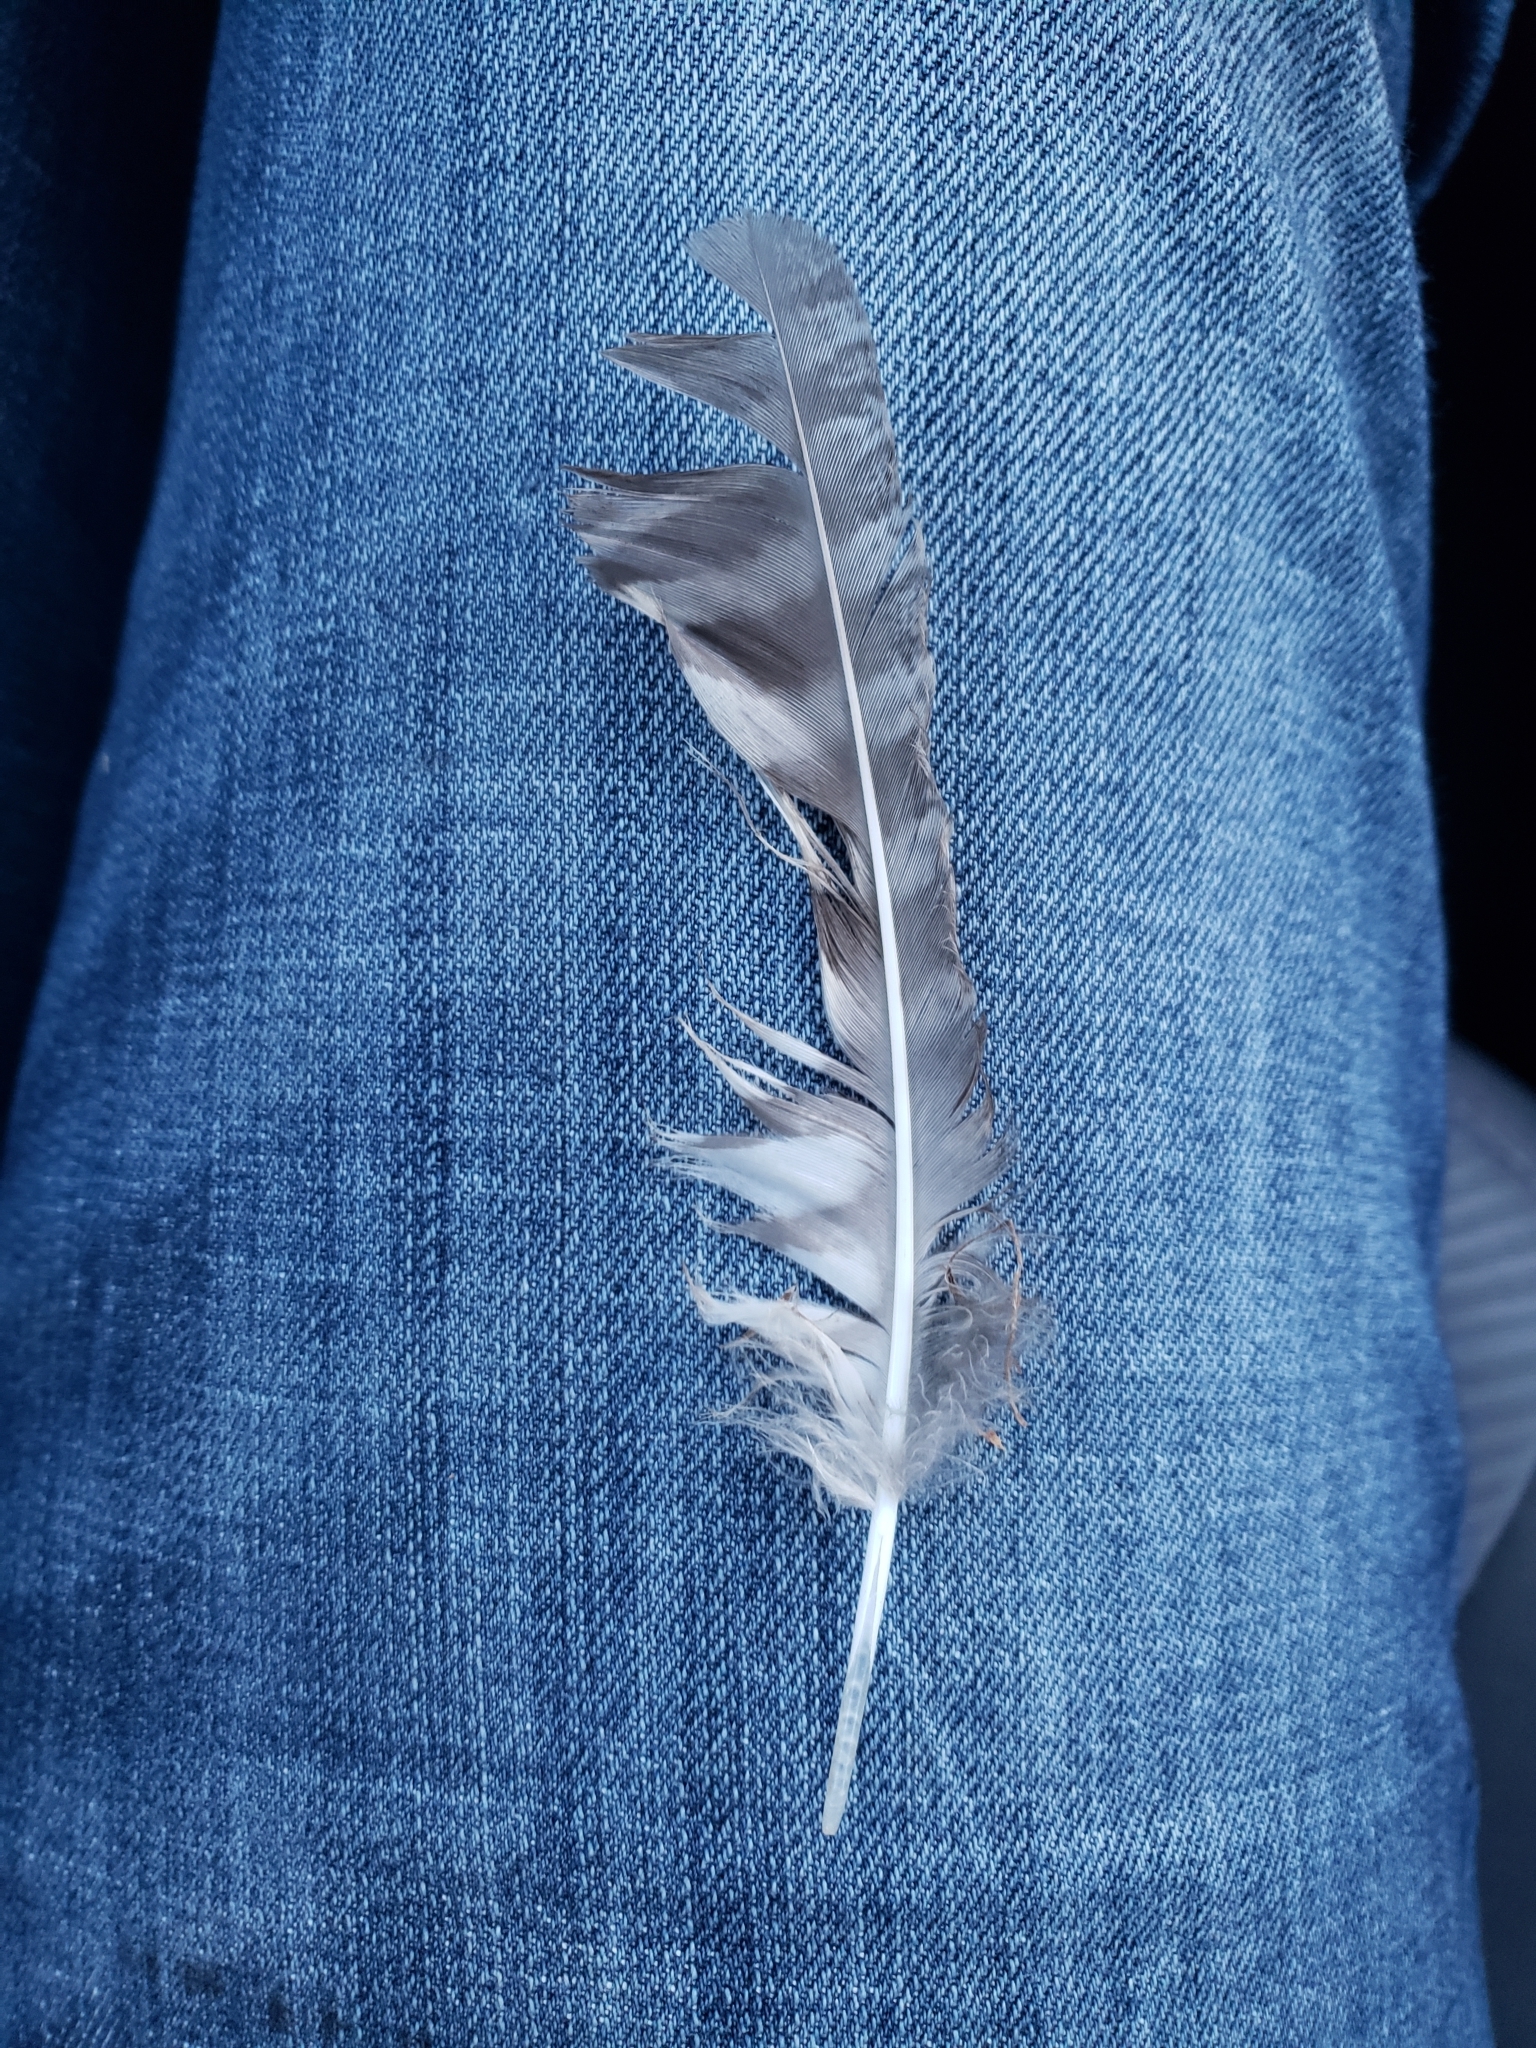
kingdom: Animalia
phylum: Chordata
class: Aves
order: Strigiformes
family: Strigidae
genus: Megascops
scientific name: Megascops asio
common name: Eastern screech-owl
